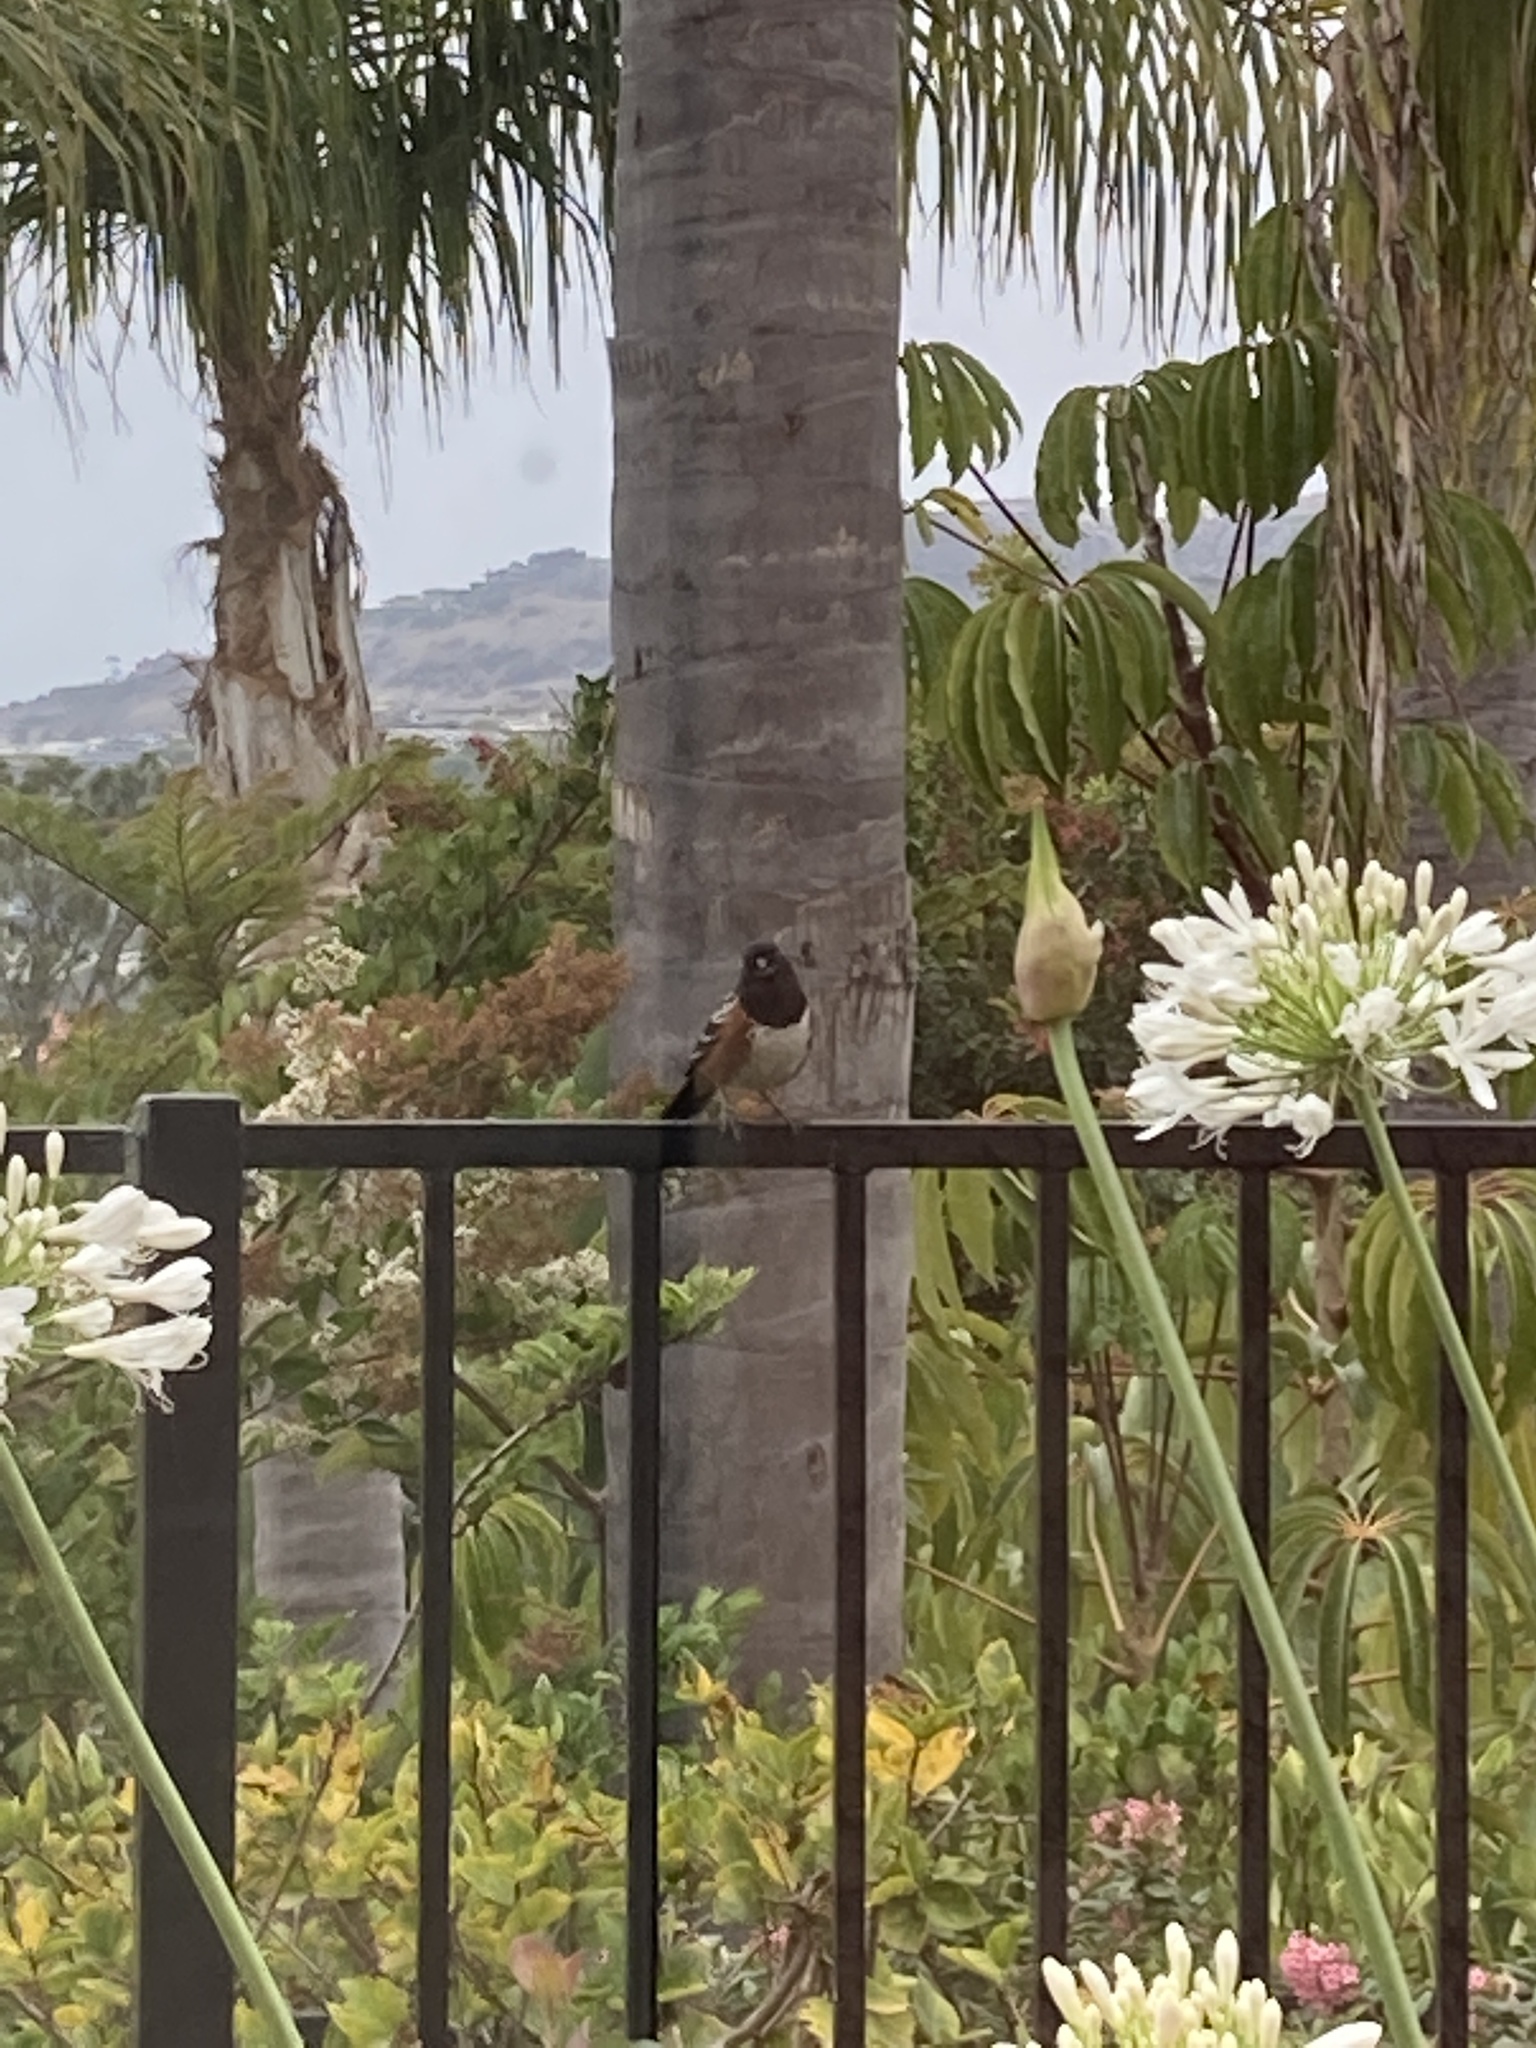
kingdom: Animalia
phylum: Chordata
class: Aves
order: Passeriformes
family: Passerellidae
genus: Pipilo
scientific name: Pipilo maculatus
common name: Spotted towhee
